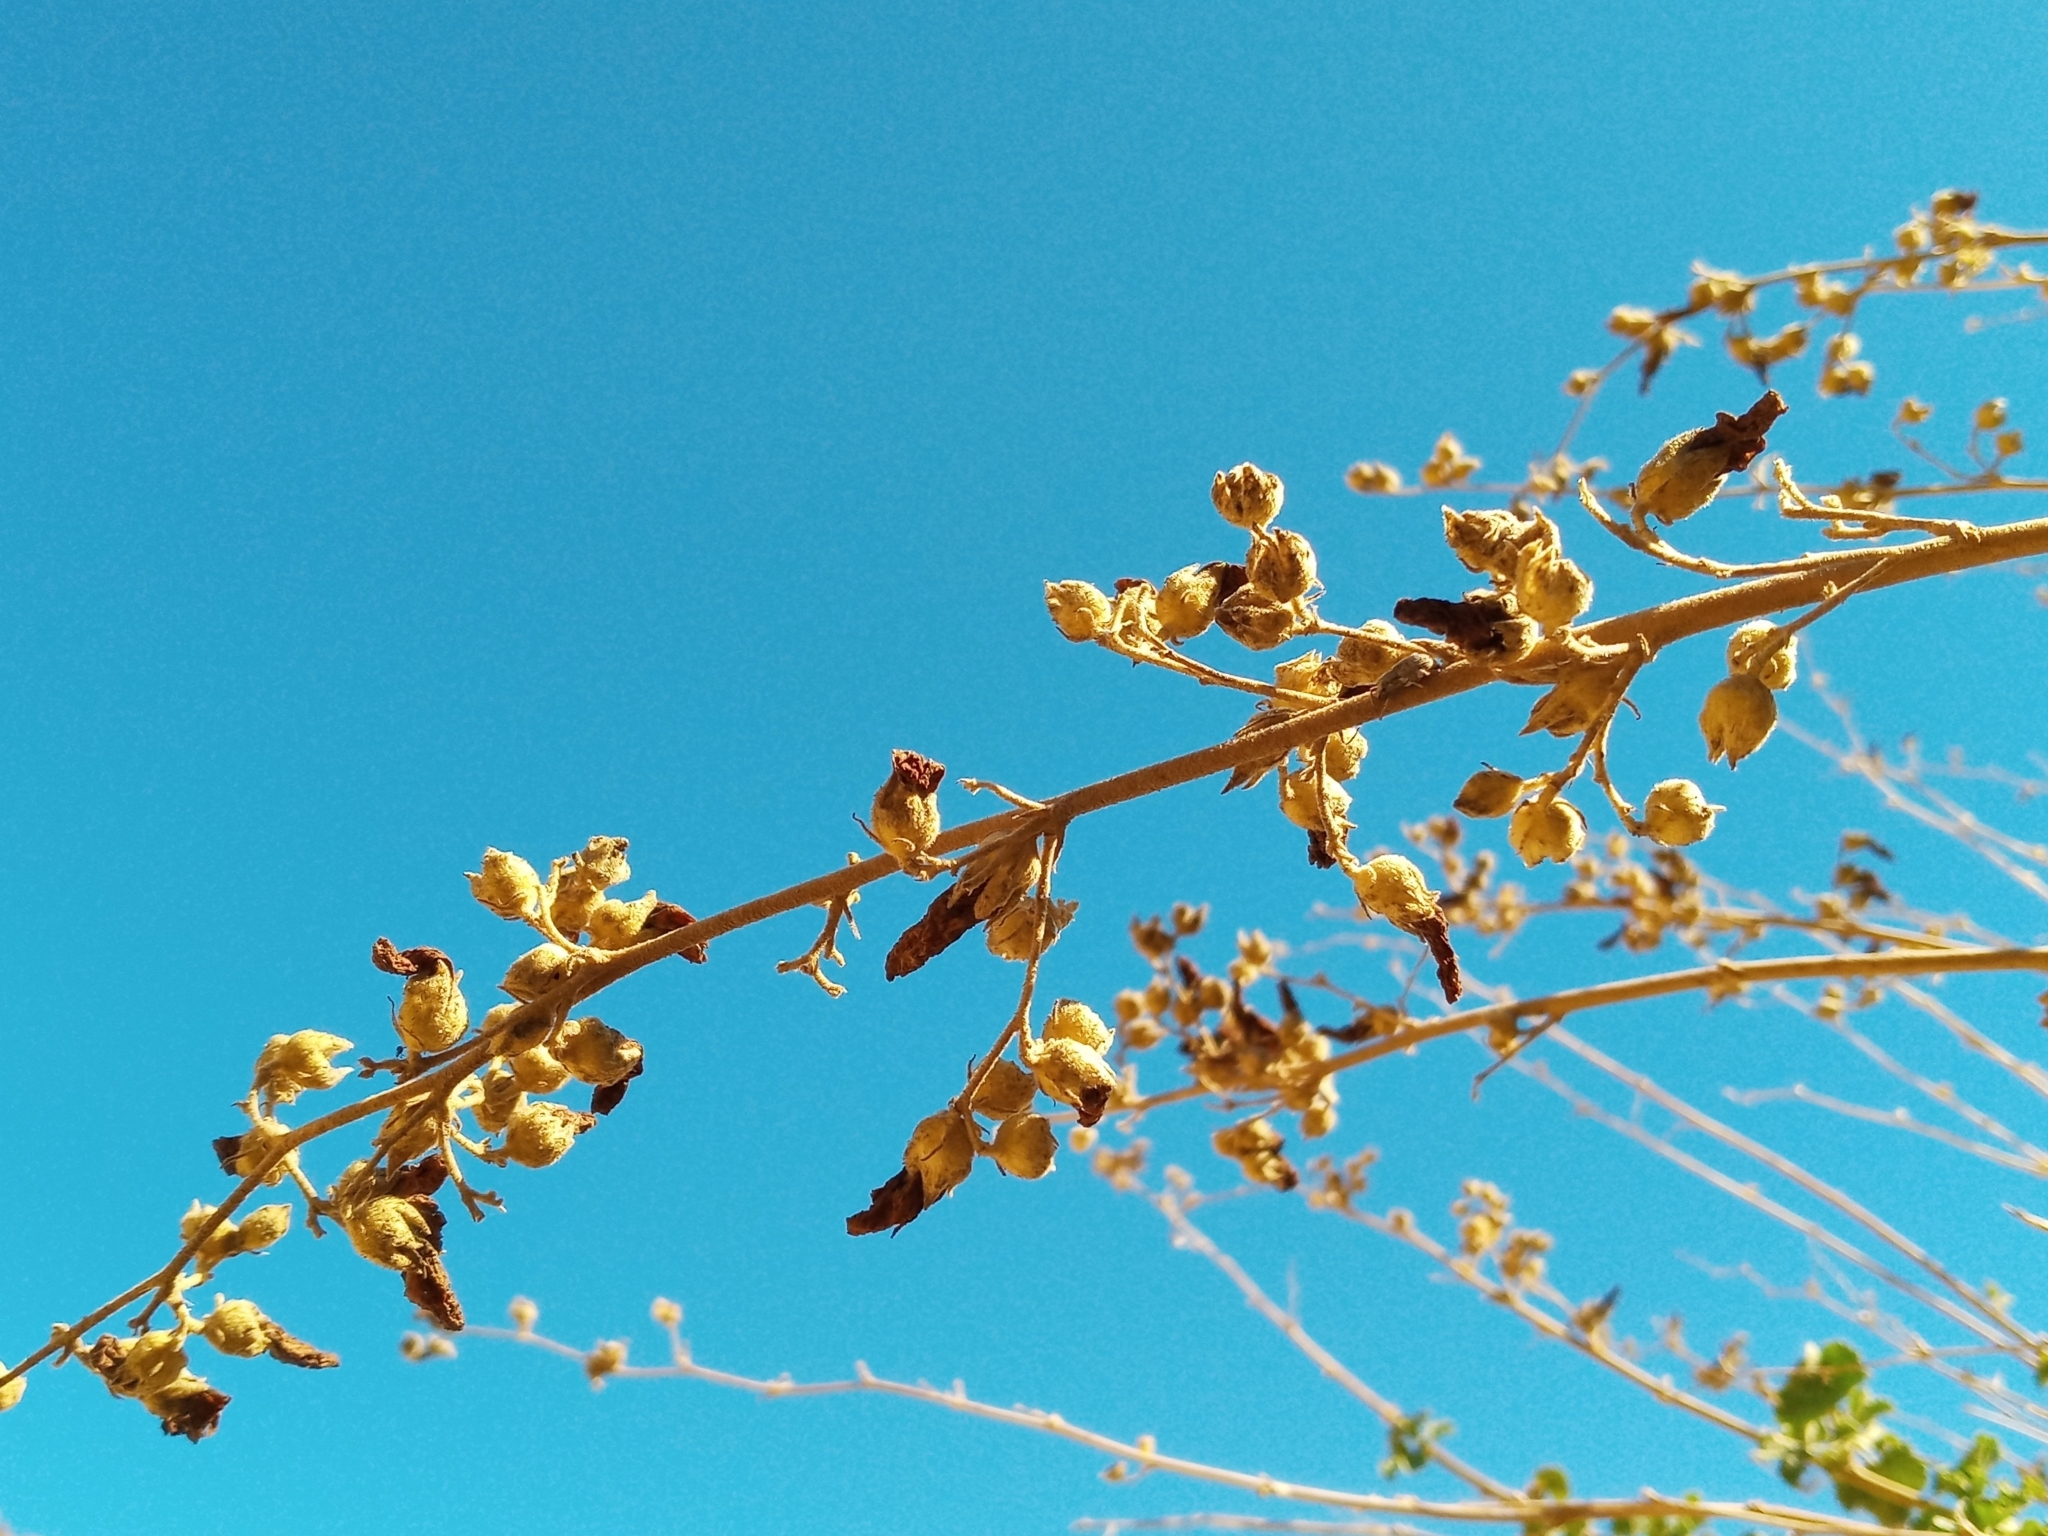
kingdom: Plantae
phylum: Tracheophyta
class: Magnoliopsida
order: Malvales
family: Malvaceae
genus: Malacothamnus
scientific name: Malacothamnus fasciculatus
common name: Sant cruz island bush-mallow
